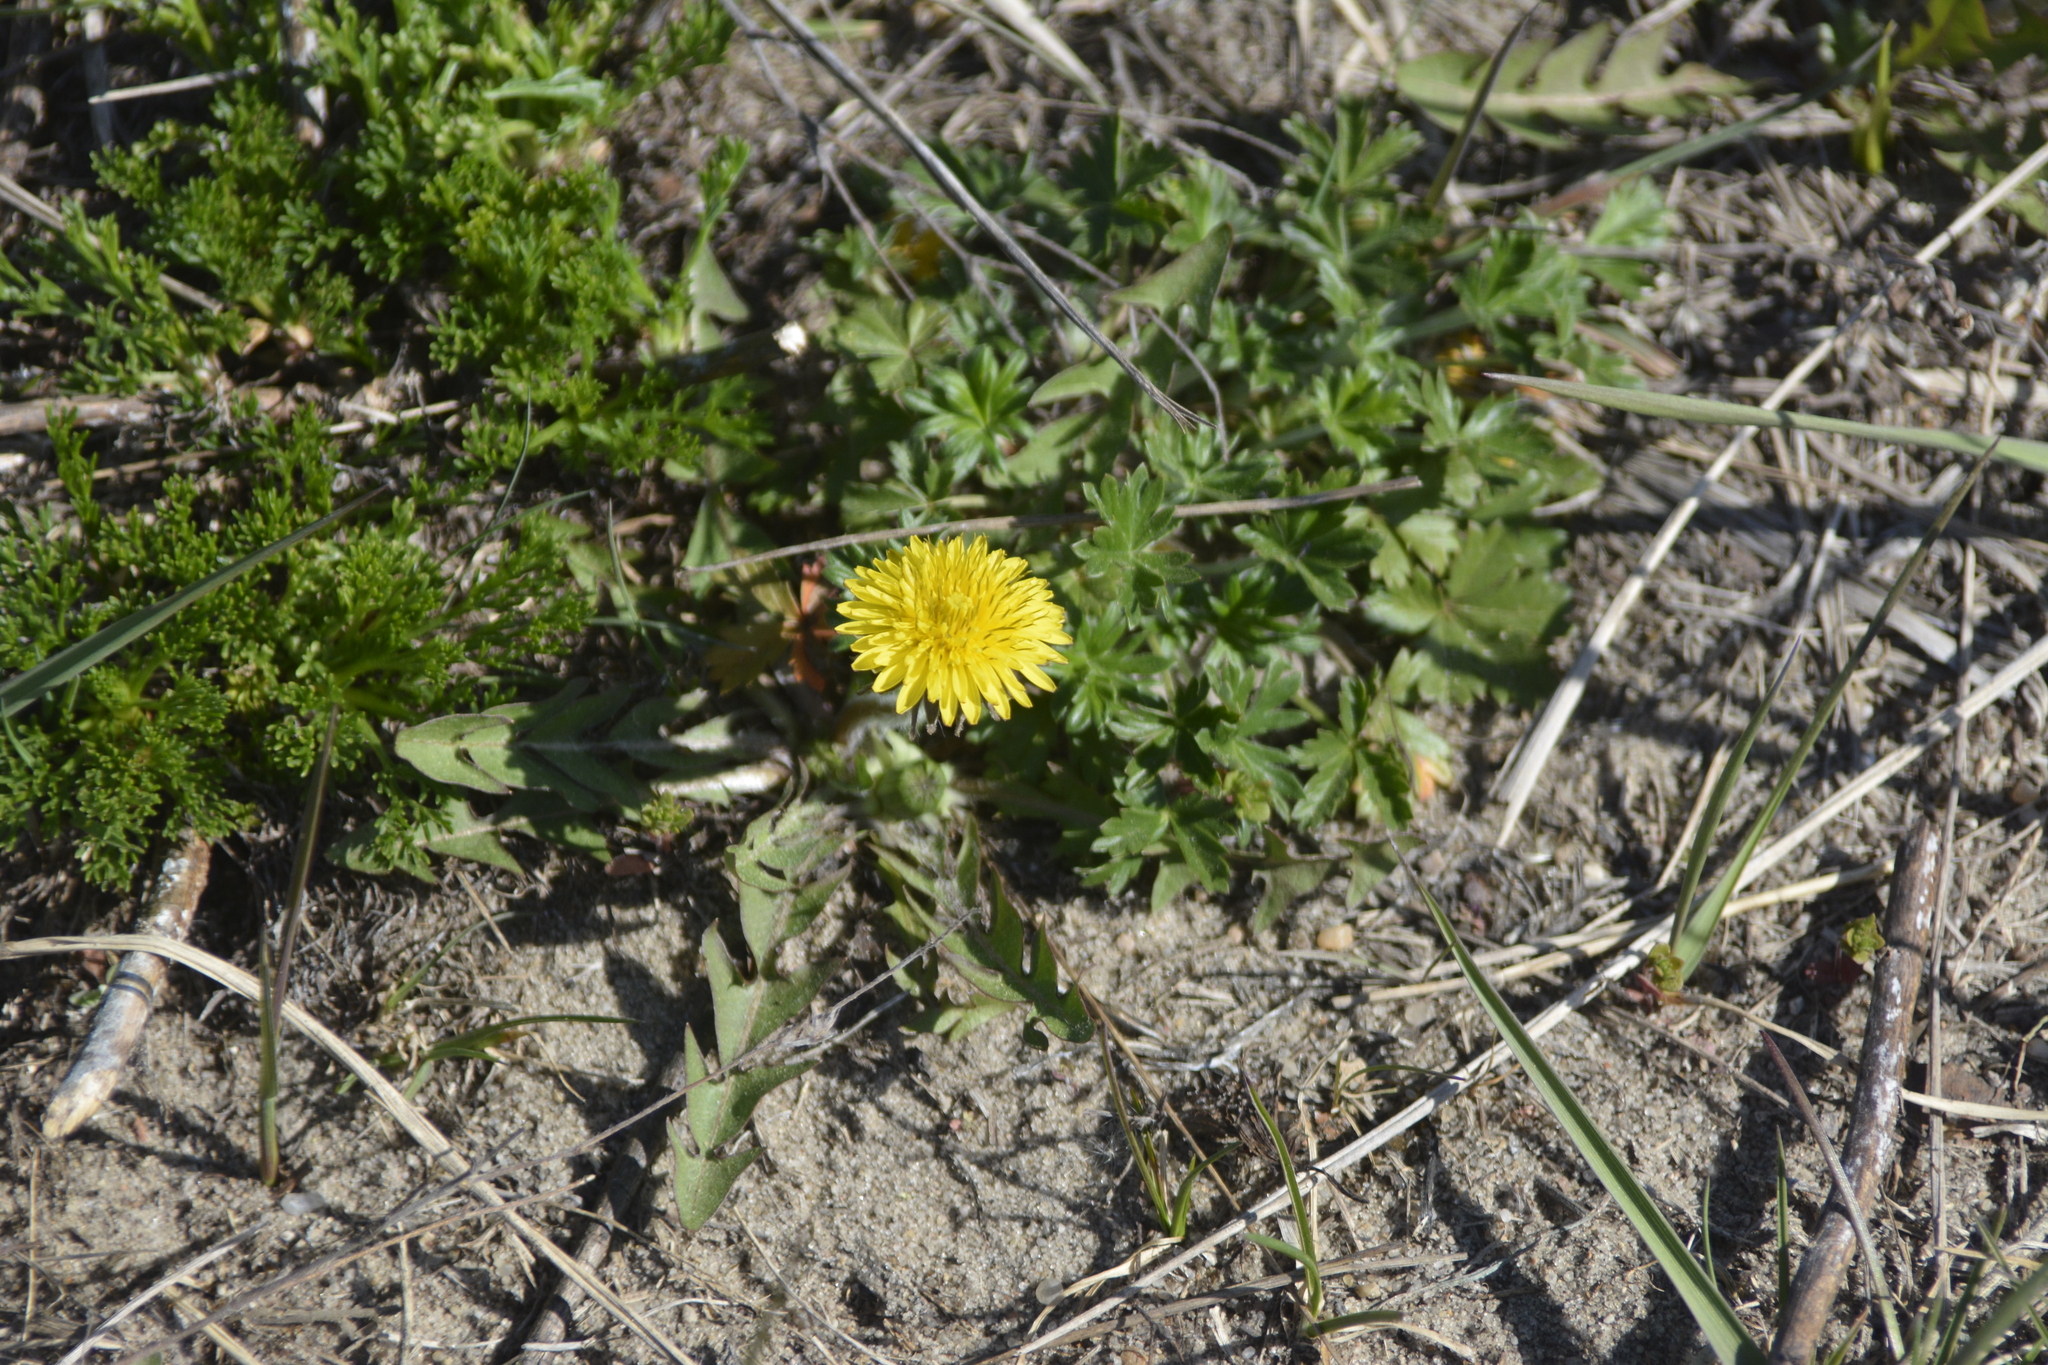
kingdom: Plantae
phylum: Tracheophyta
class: Magnoliopsida
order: Asterales
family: Asteraceae
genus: Taraxacum
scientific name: Taraxacum officinale
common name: Common dandelion
